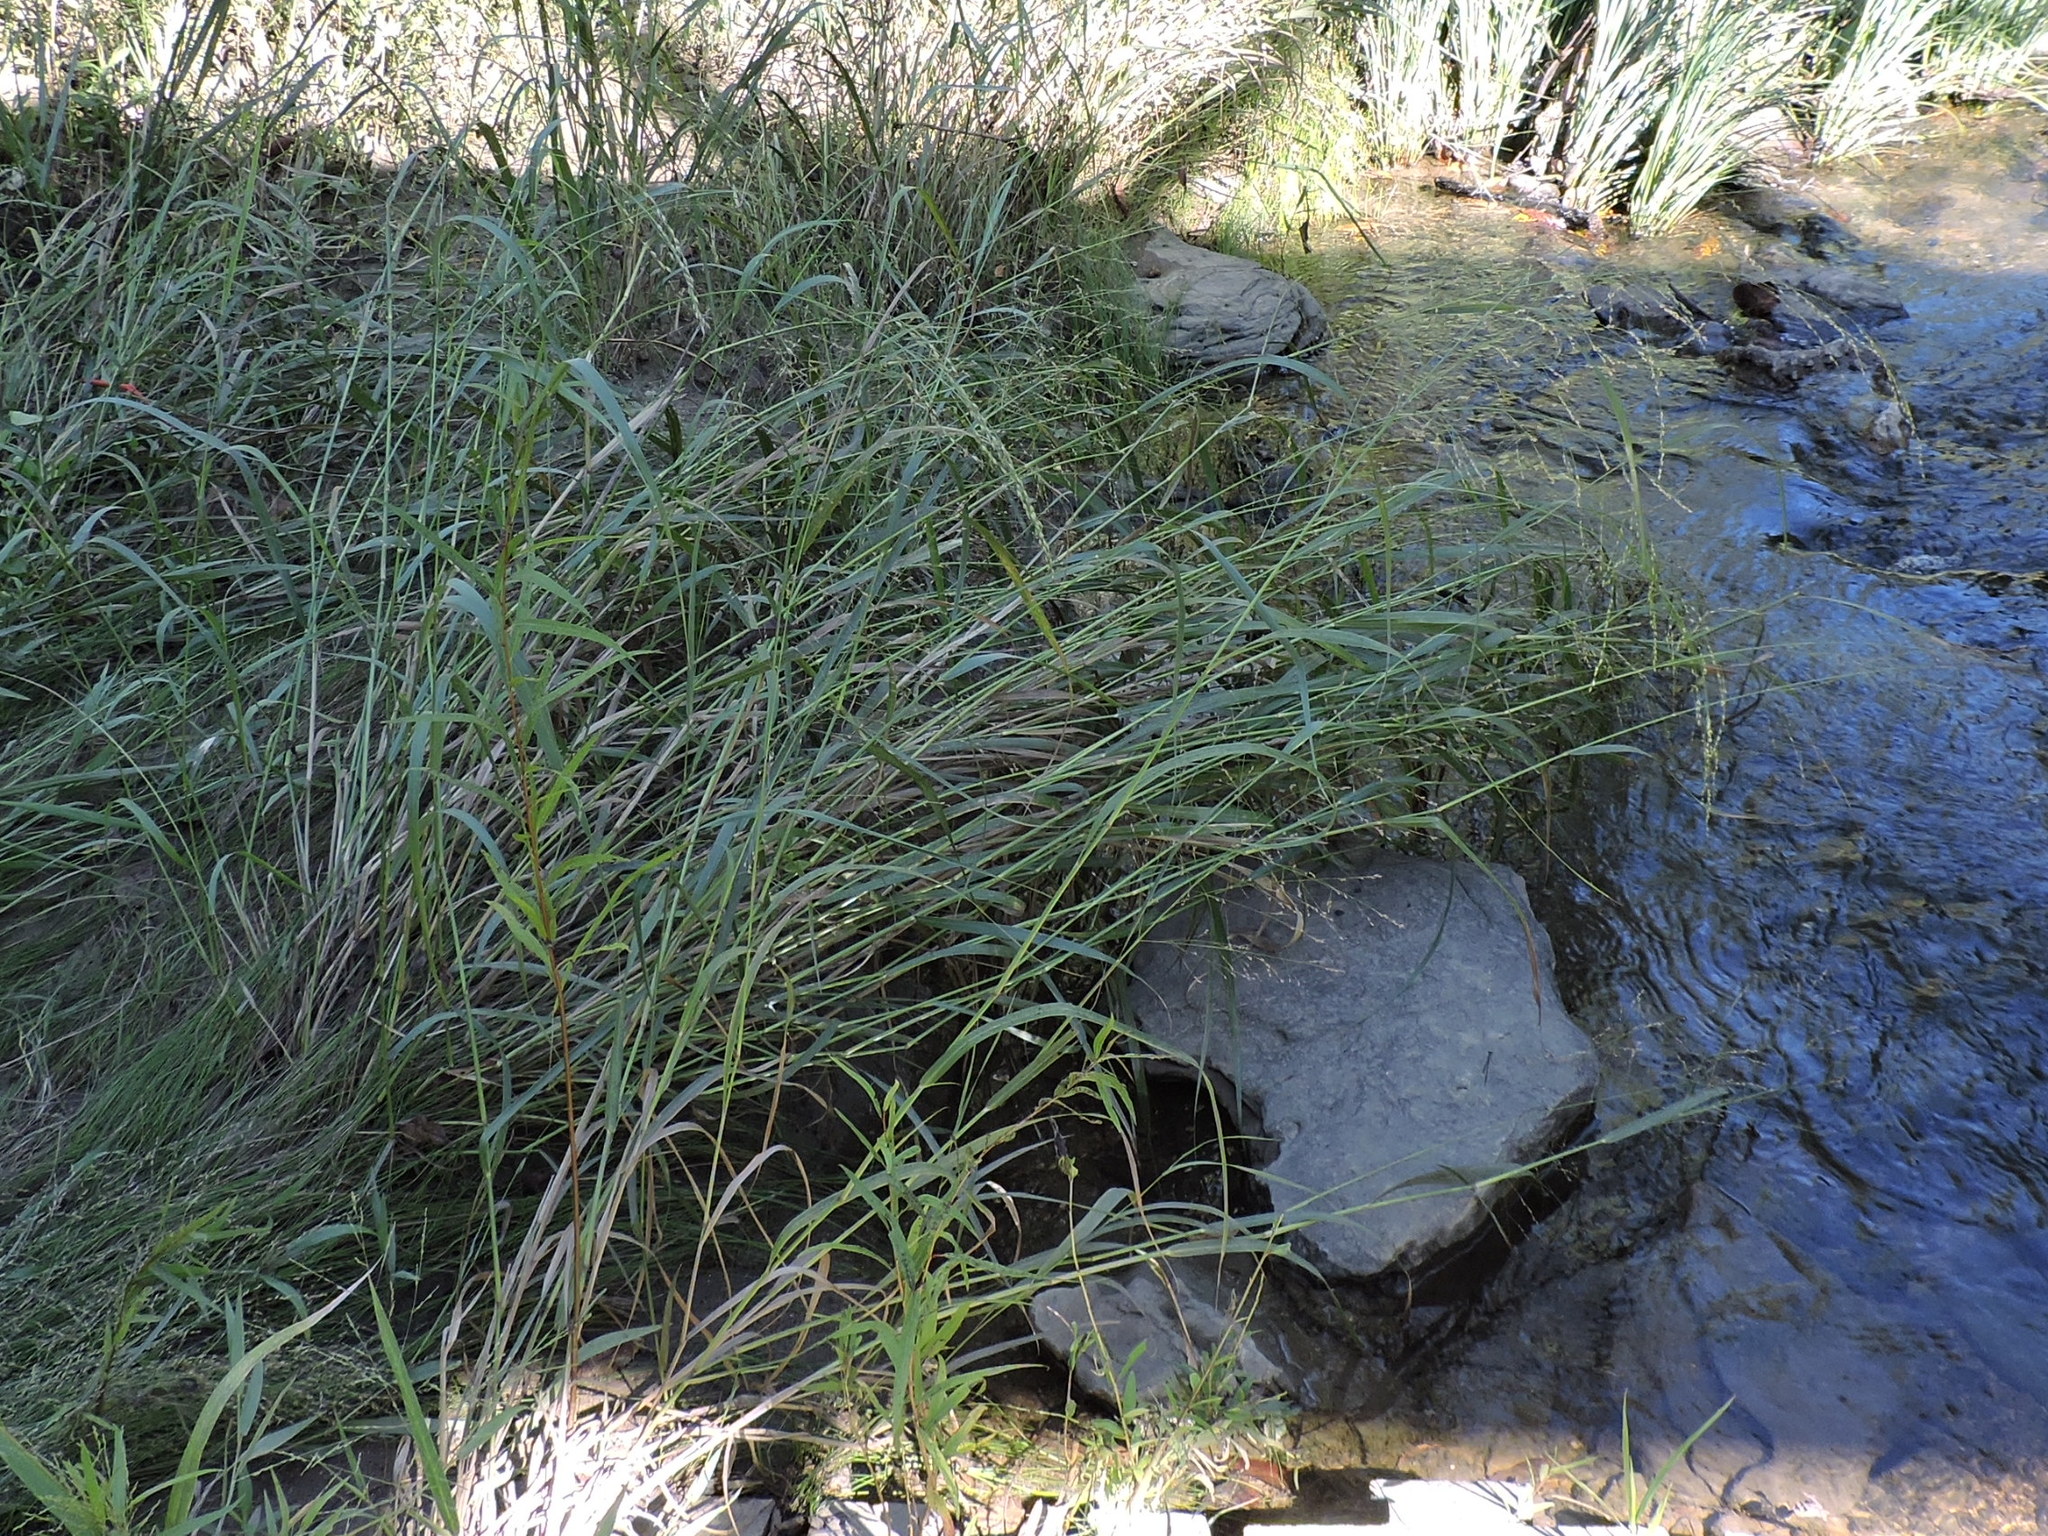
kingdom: Plantae
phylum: Tracheophyta
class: Liliopsida
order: Poales
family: Poaceae
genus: Panicum
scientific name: Panicum virgatum
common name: Switchgrass
